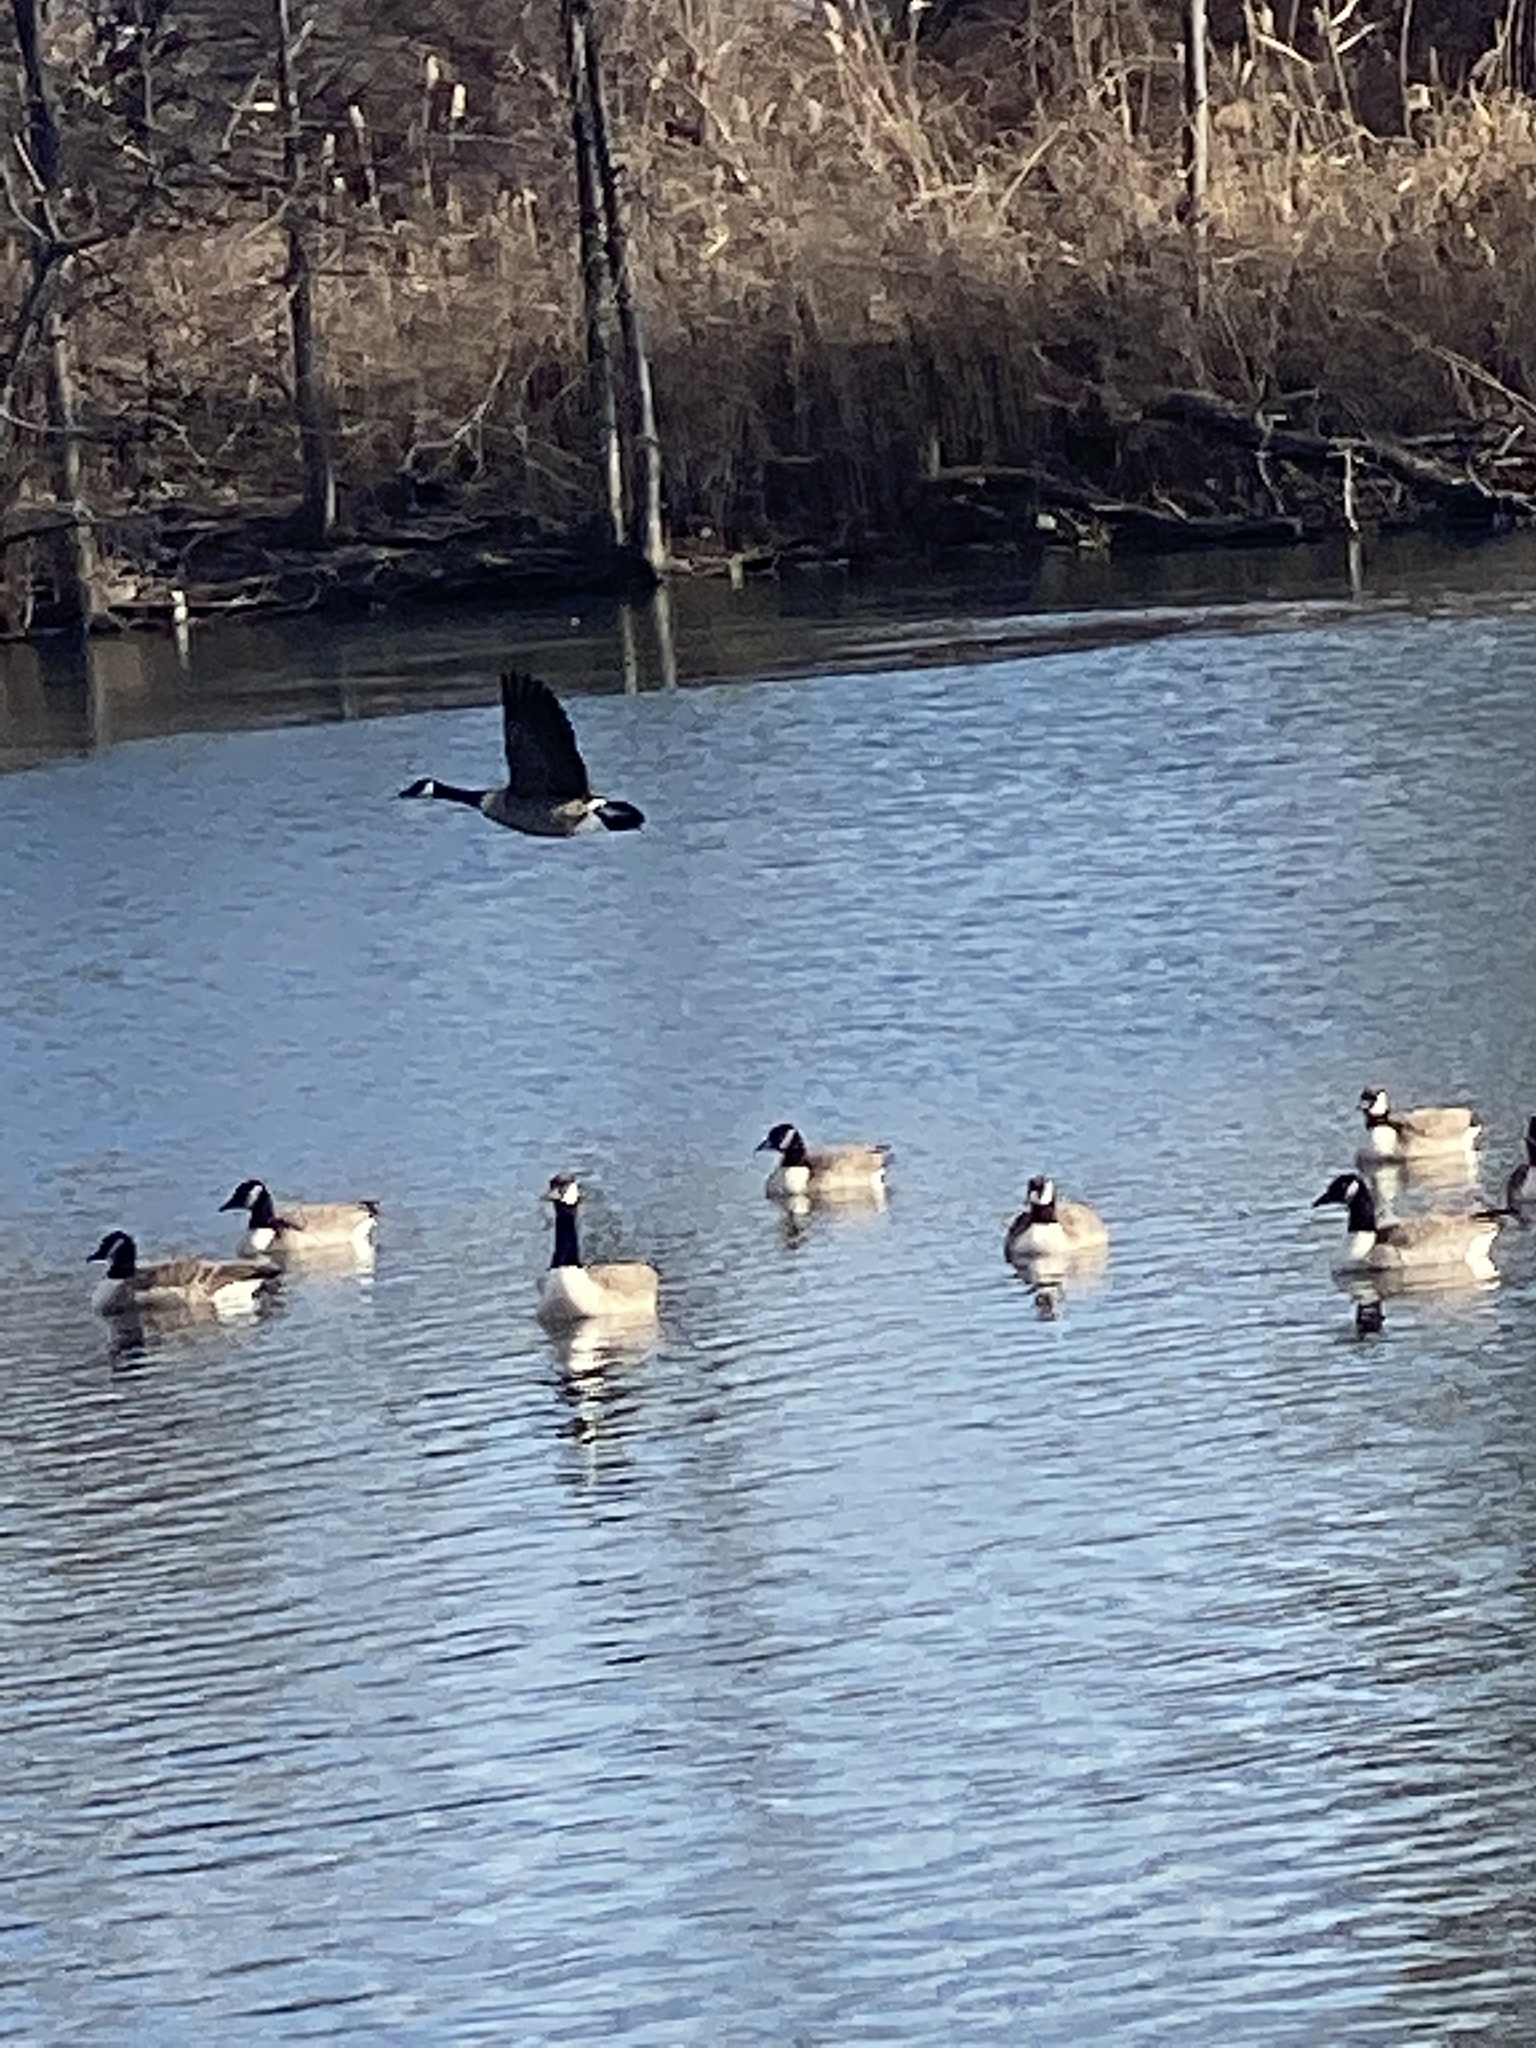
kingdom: Animalia
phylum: Chordata
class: Aves
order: Anseriformes
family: Anatidae
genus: Branta
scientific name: Branta canadensis
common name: Canada goose
